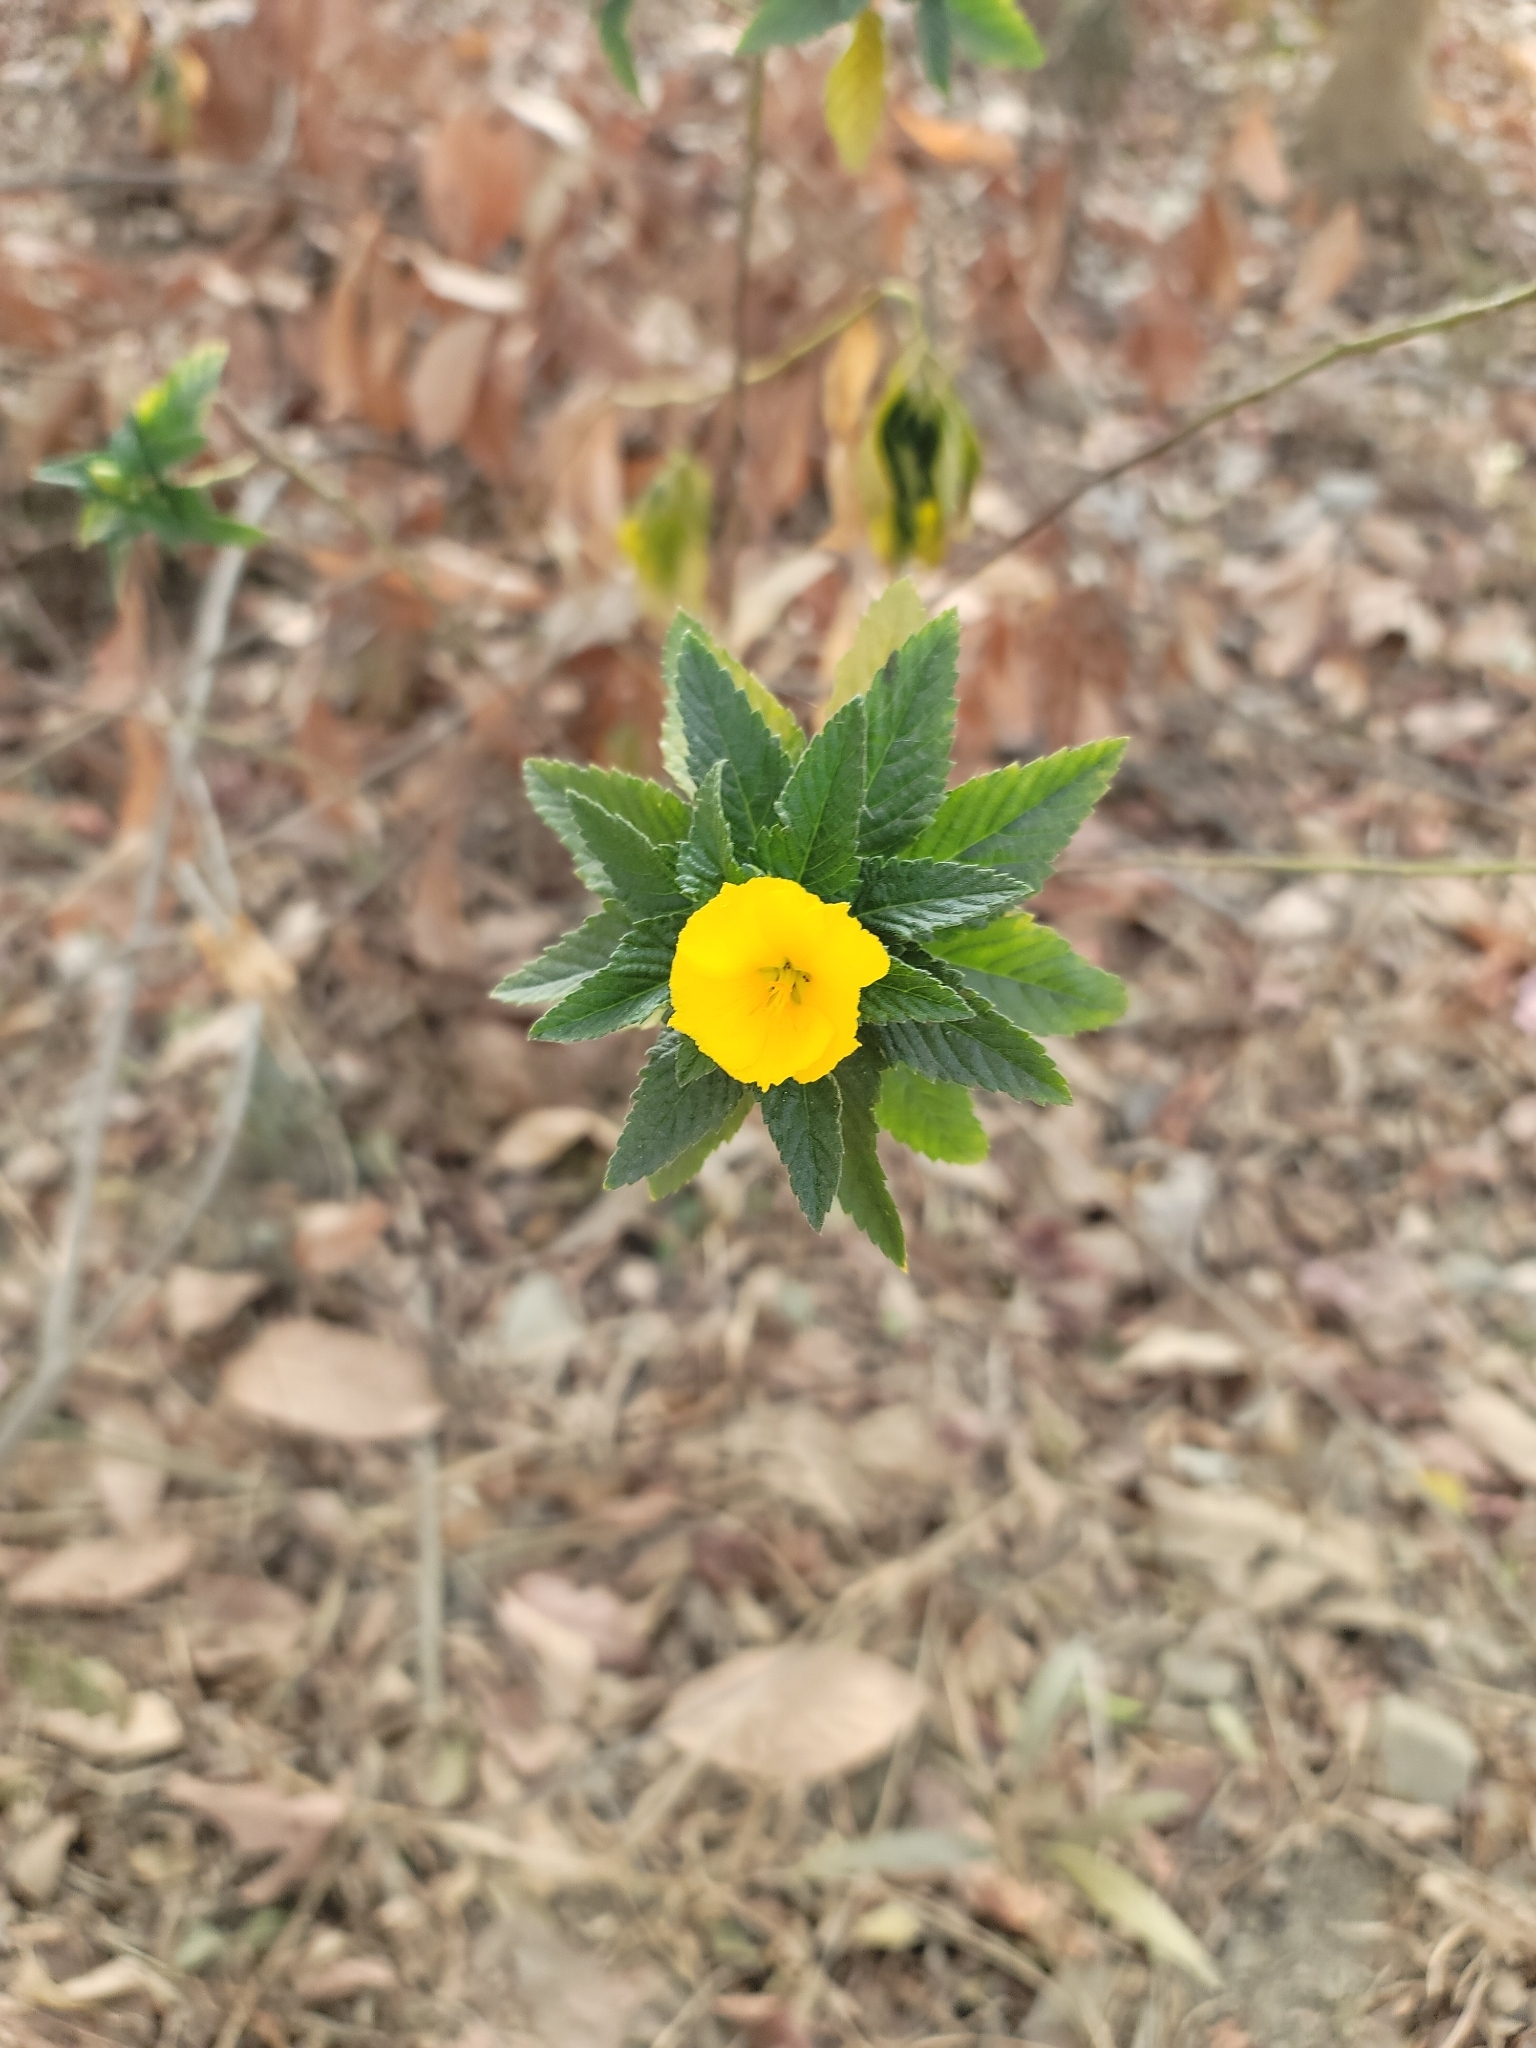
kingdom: Plantae
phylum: Tracheophyta
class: Magnoliopsida
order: Malpighiales
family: Turneraceae
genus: Turnera
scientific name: Turnera ulmifolia
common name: Ramgoat dashalong
